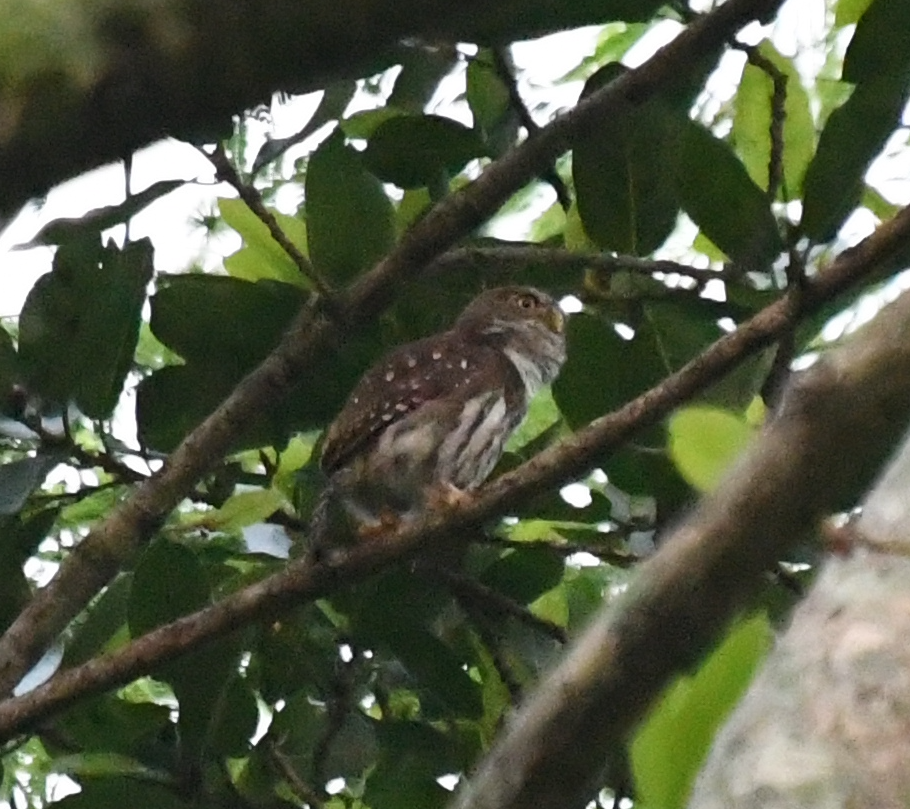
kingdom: Animalia
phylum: Chordata
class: Aves
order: Strigiformes
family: Strigidae
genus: Glaucidium
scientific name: Glaucidium brasilianum
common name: Ferruginous pygmy-owl
